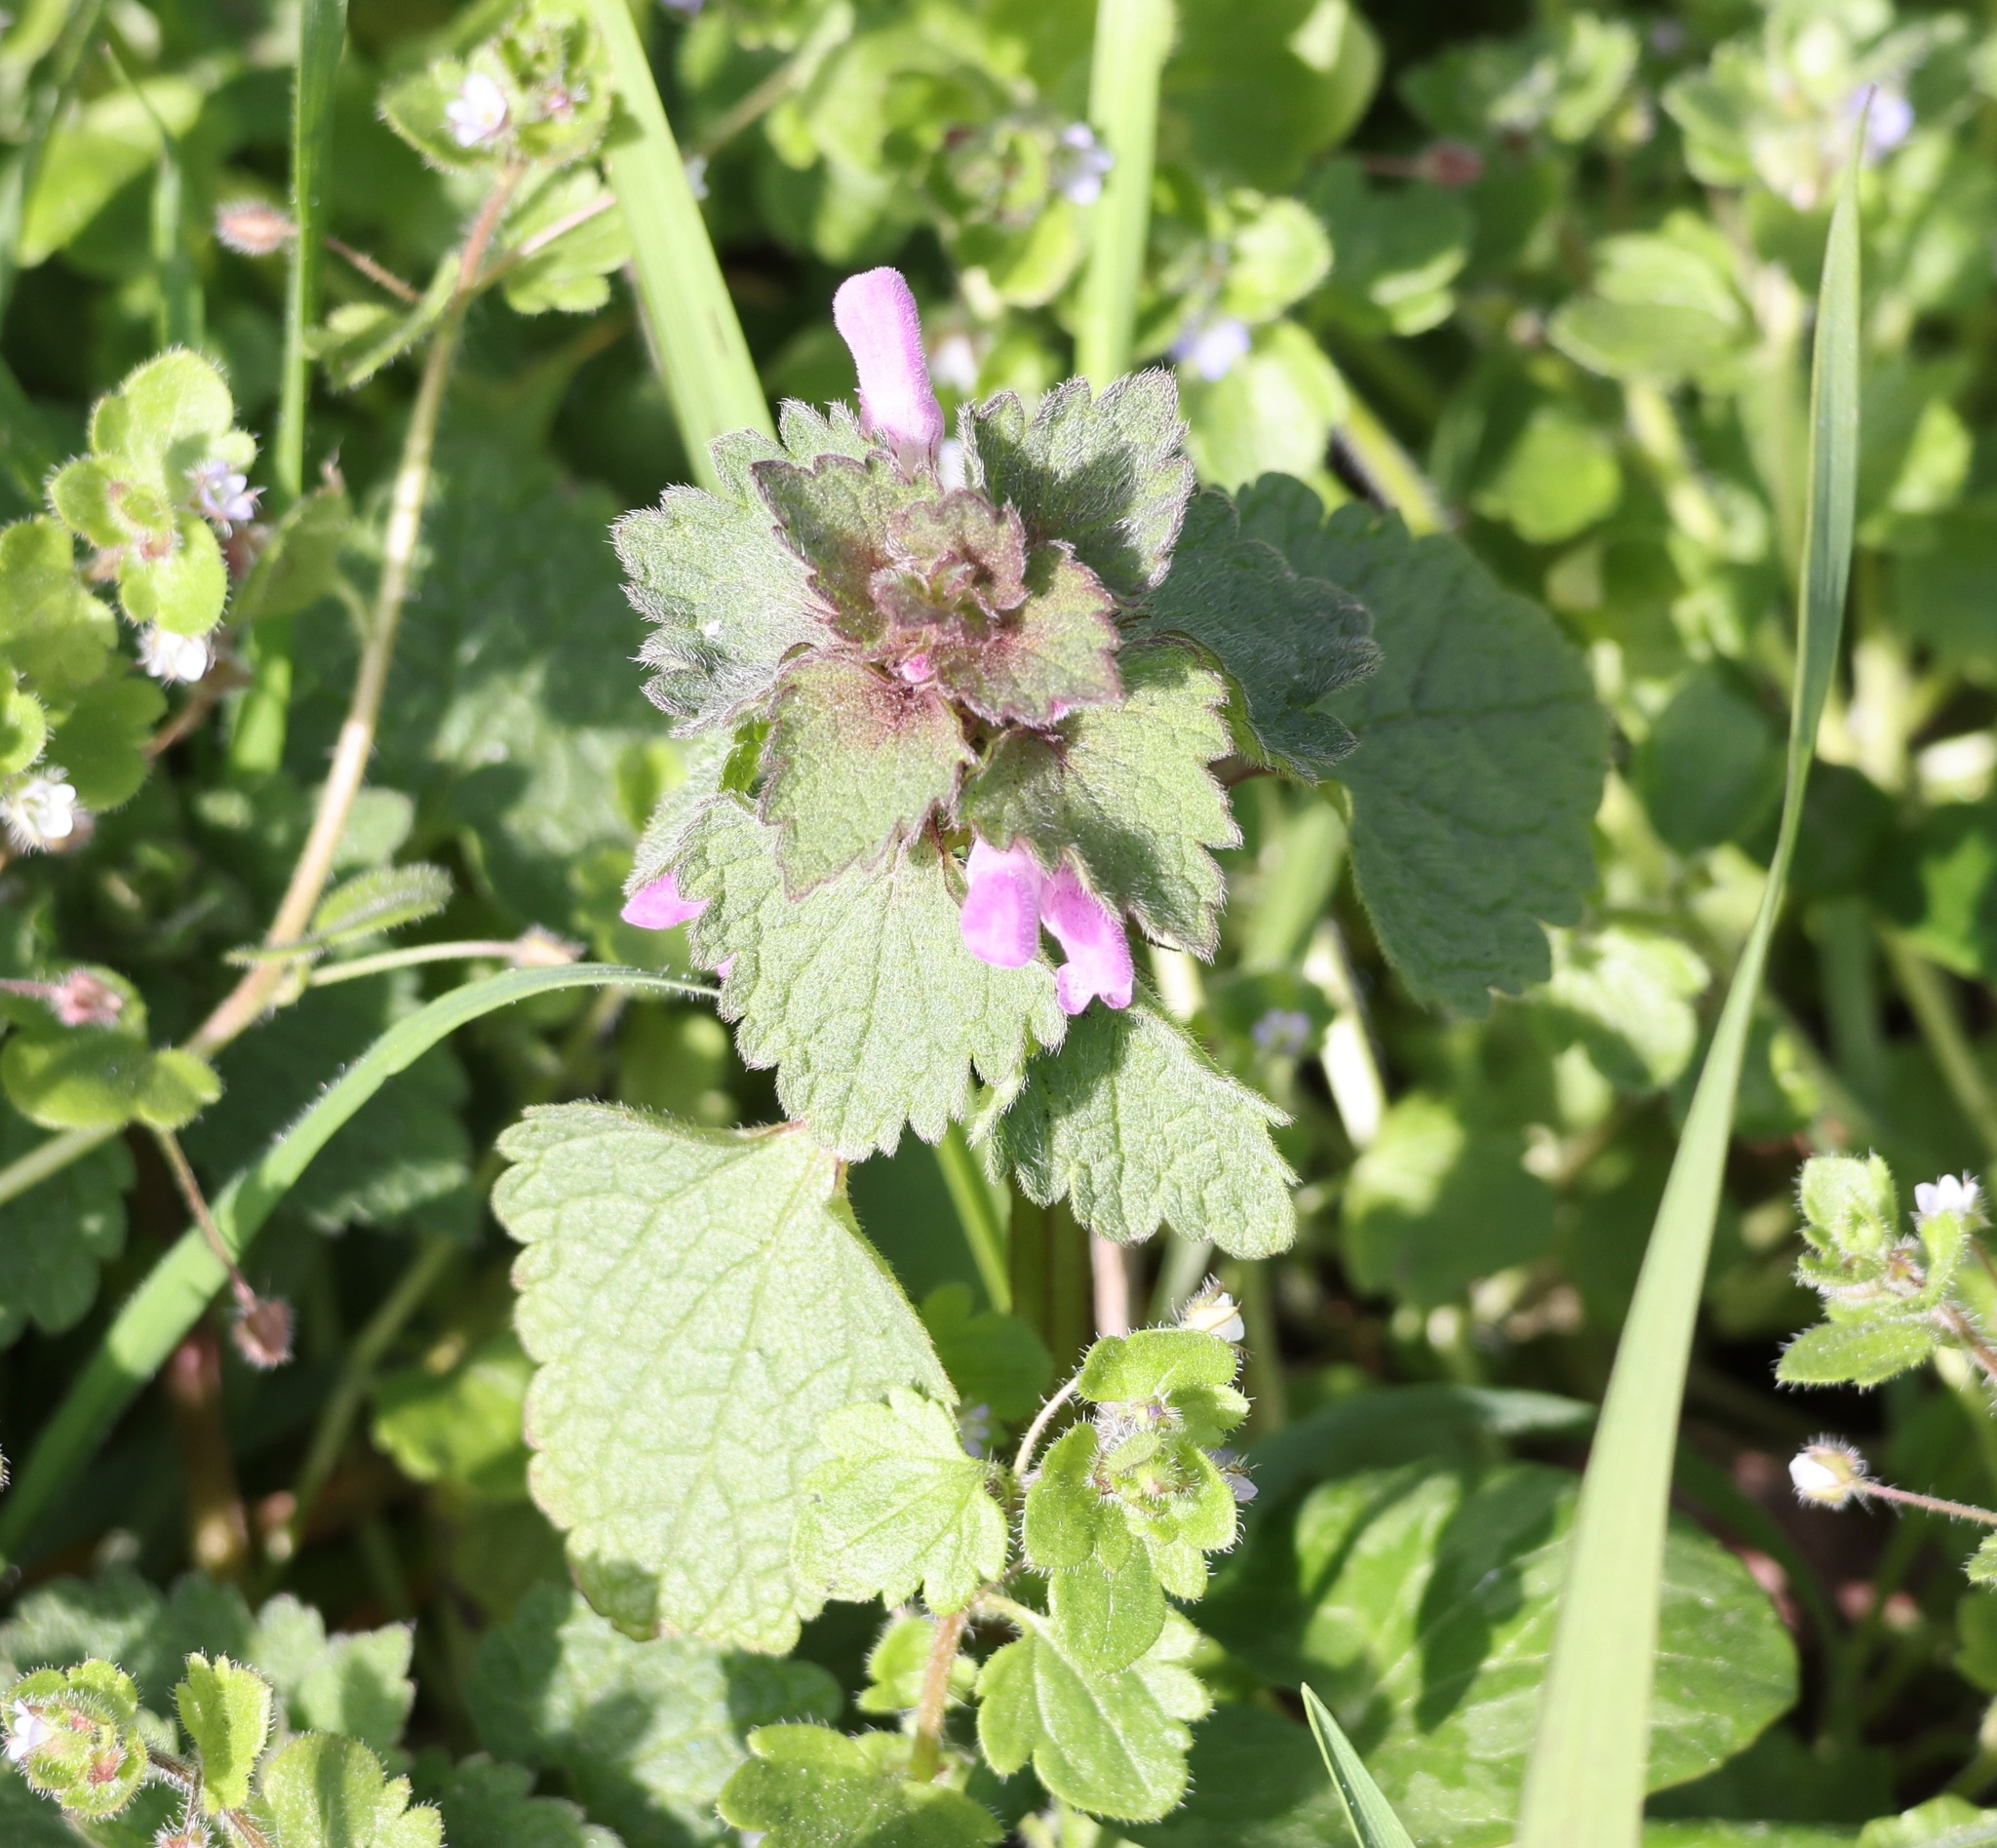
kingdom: Plantae
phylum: Tracheophyta
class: Magnoliopsida
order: Lamiales
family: Lamiaceae
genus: Lamium
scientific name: Lamium purpureum
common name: Red dead-nettle
